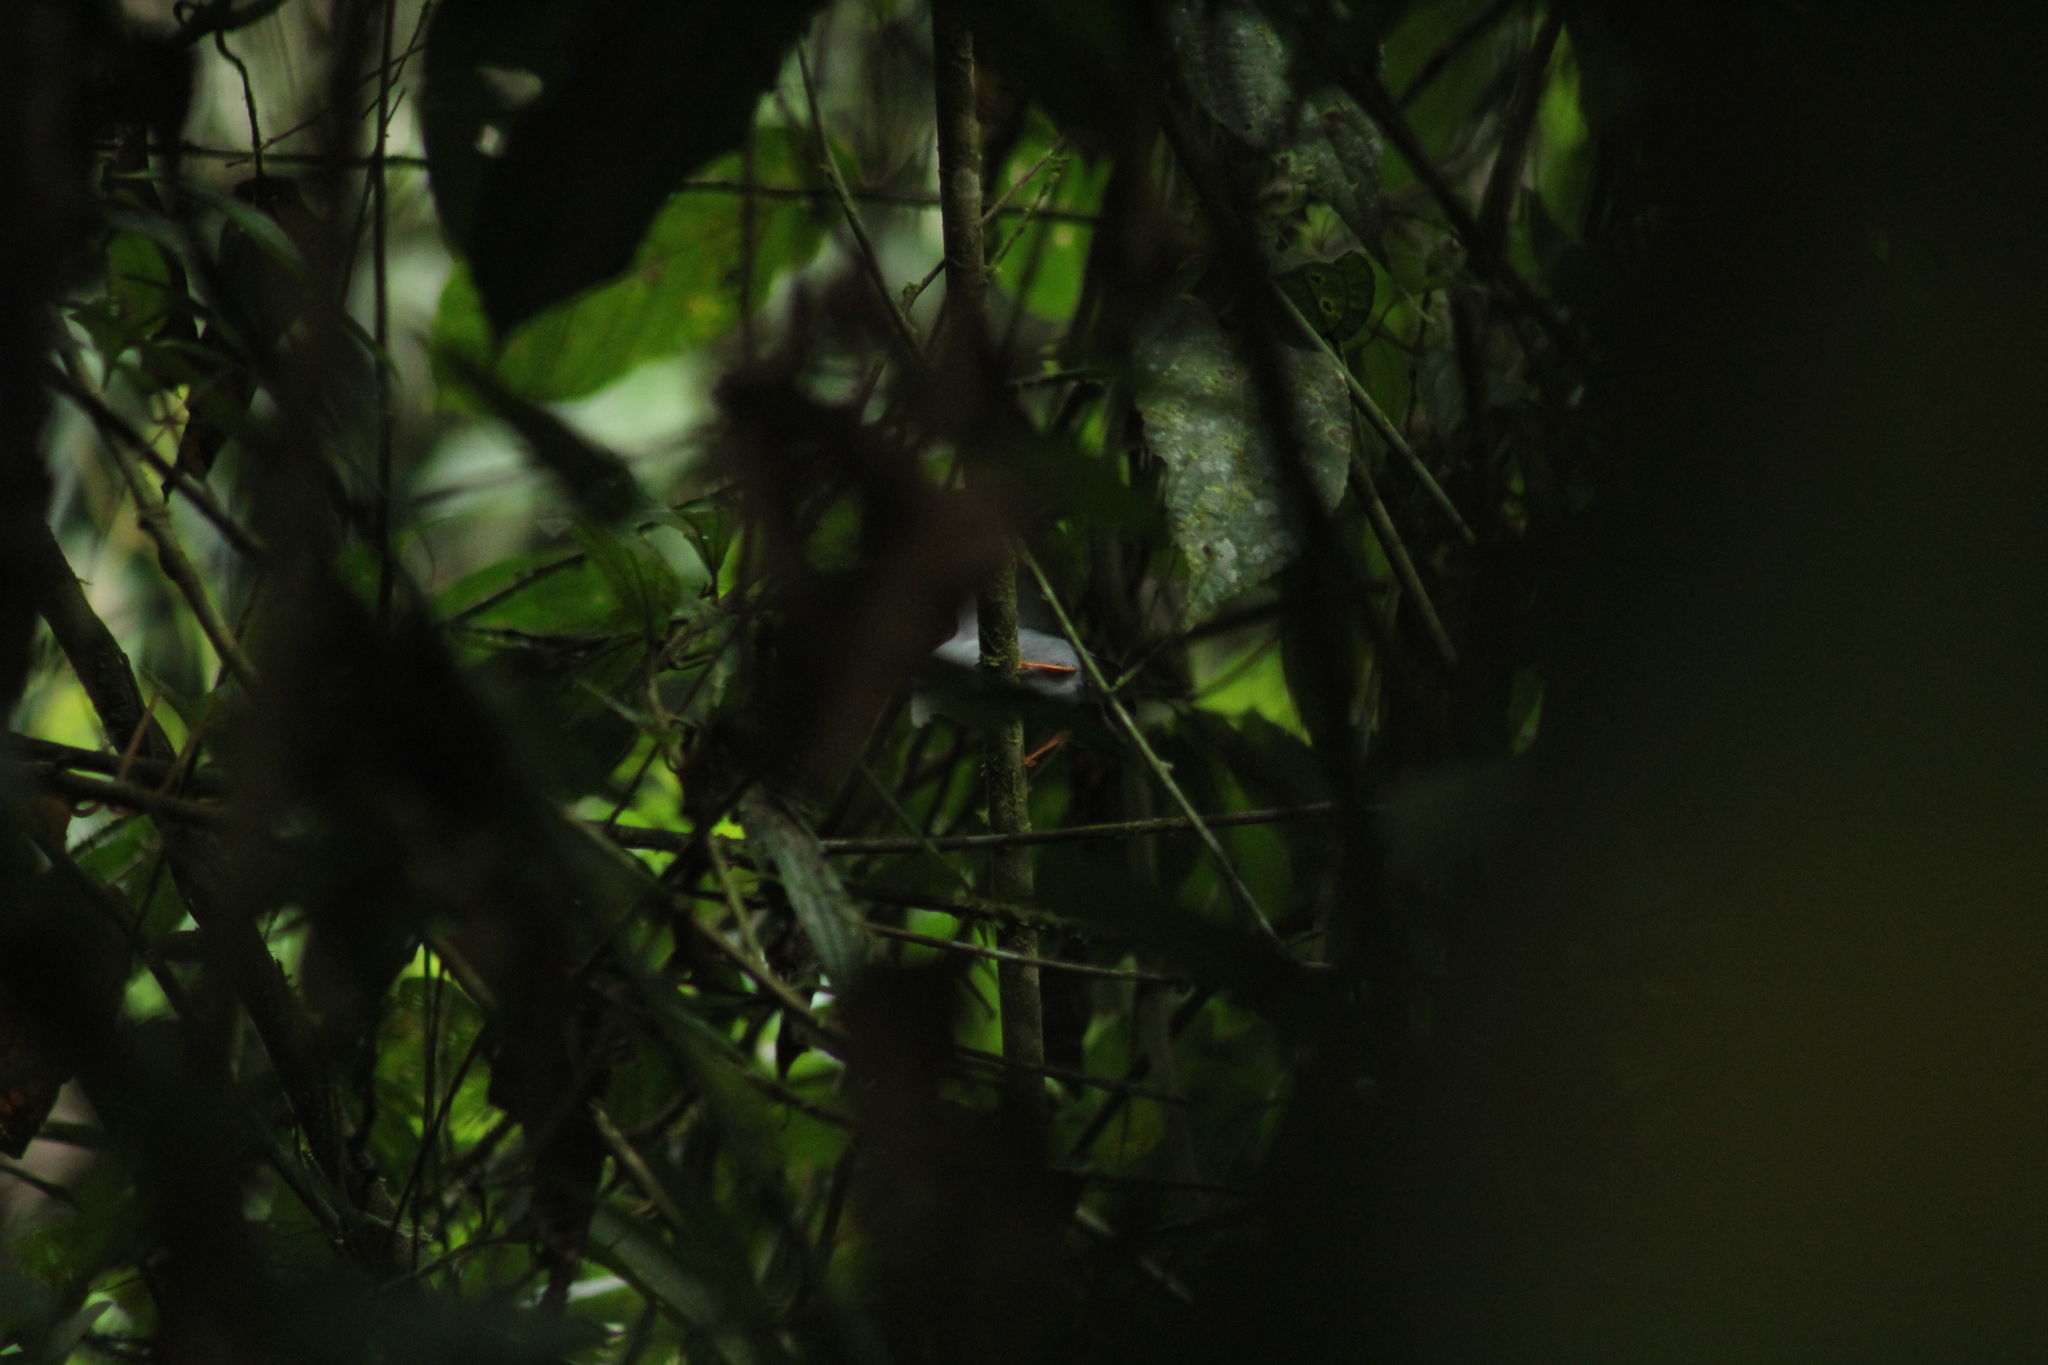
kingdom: Animalia
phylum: Chordata
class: Aves
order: Passeriformes
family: Pipridae
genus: Manacus
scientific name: Manacus manacus
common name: White-bearded manakin
